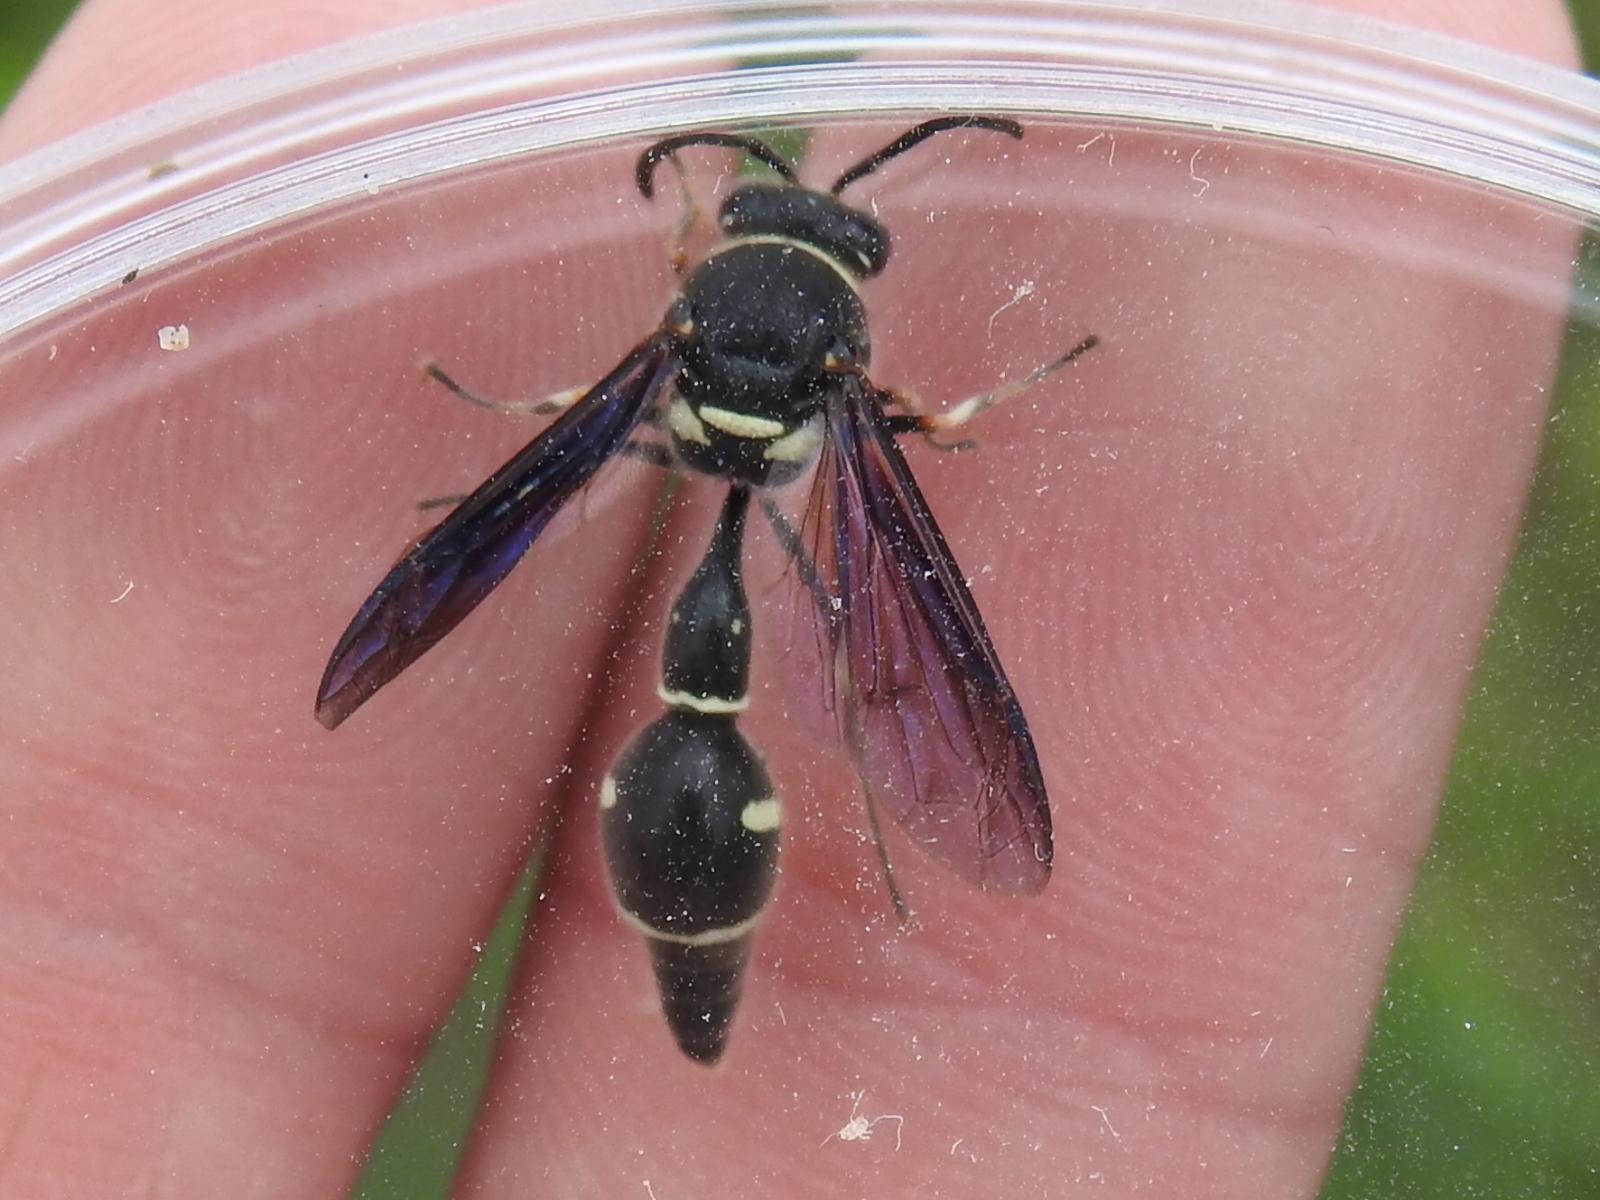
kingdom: Animalia
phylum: Arthropoda
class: Insecta
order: Hymenoptera
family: Vespidae
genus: Eumenes
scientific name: Eumenes fraternus
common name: Fraternal potter wasp
